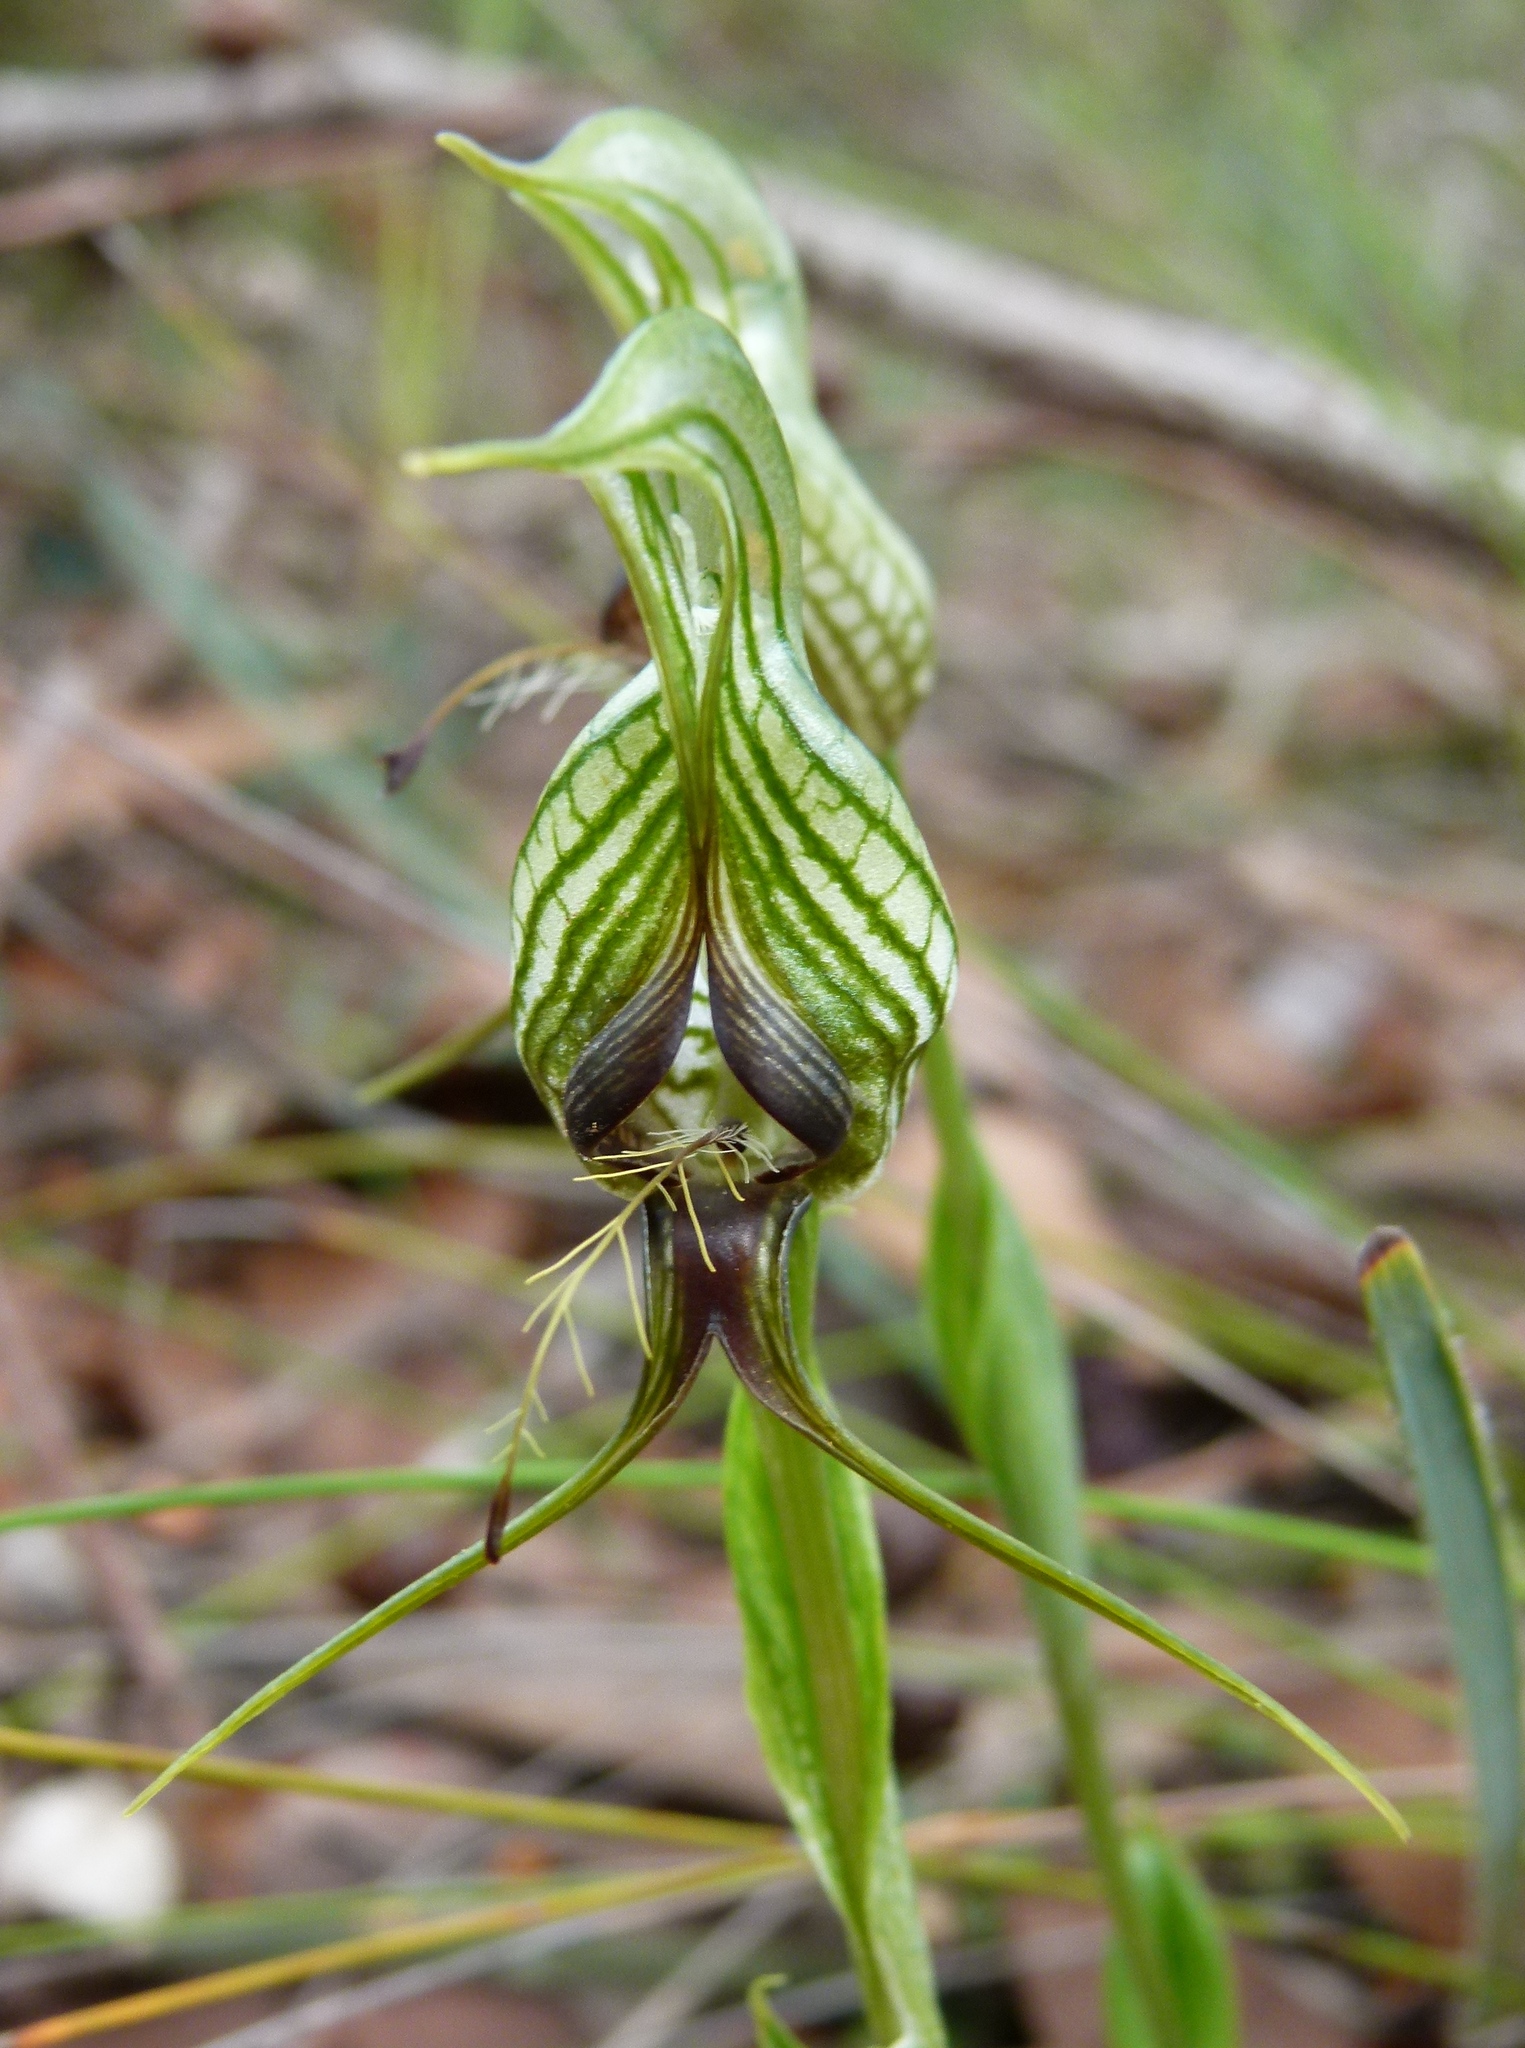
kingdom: Plantae
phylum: Tracheophyta
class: Liliopsida
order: Asparagales
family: Orchidaceae
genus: Pterostylis
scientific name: Pterostylis barbata
